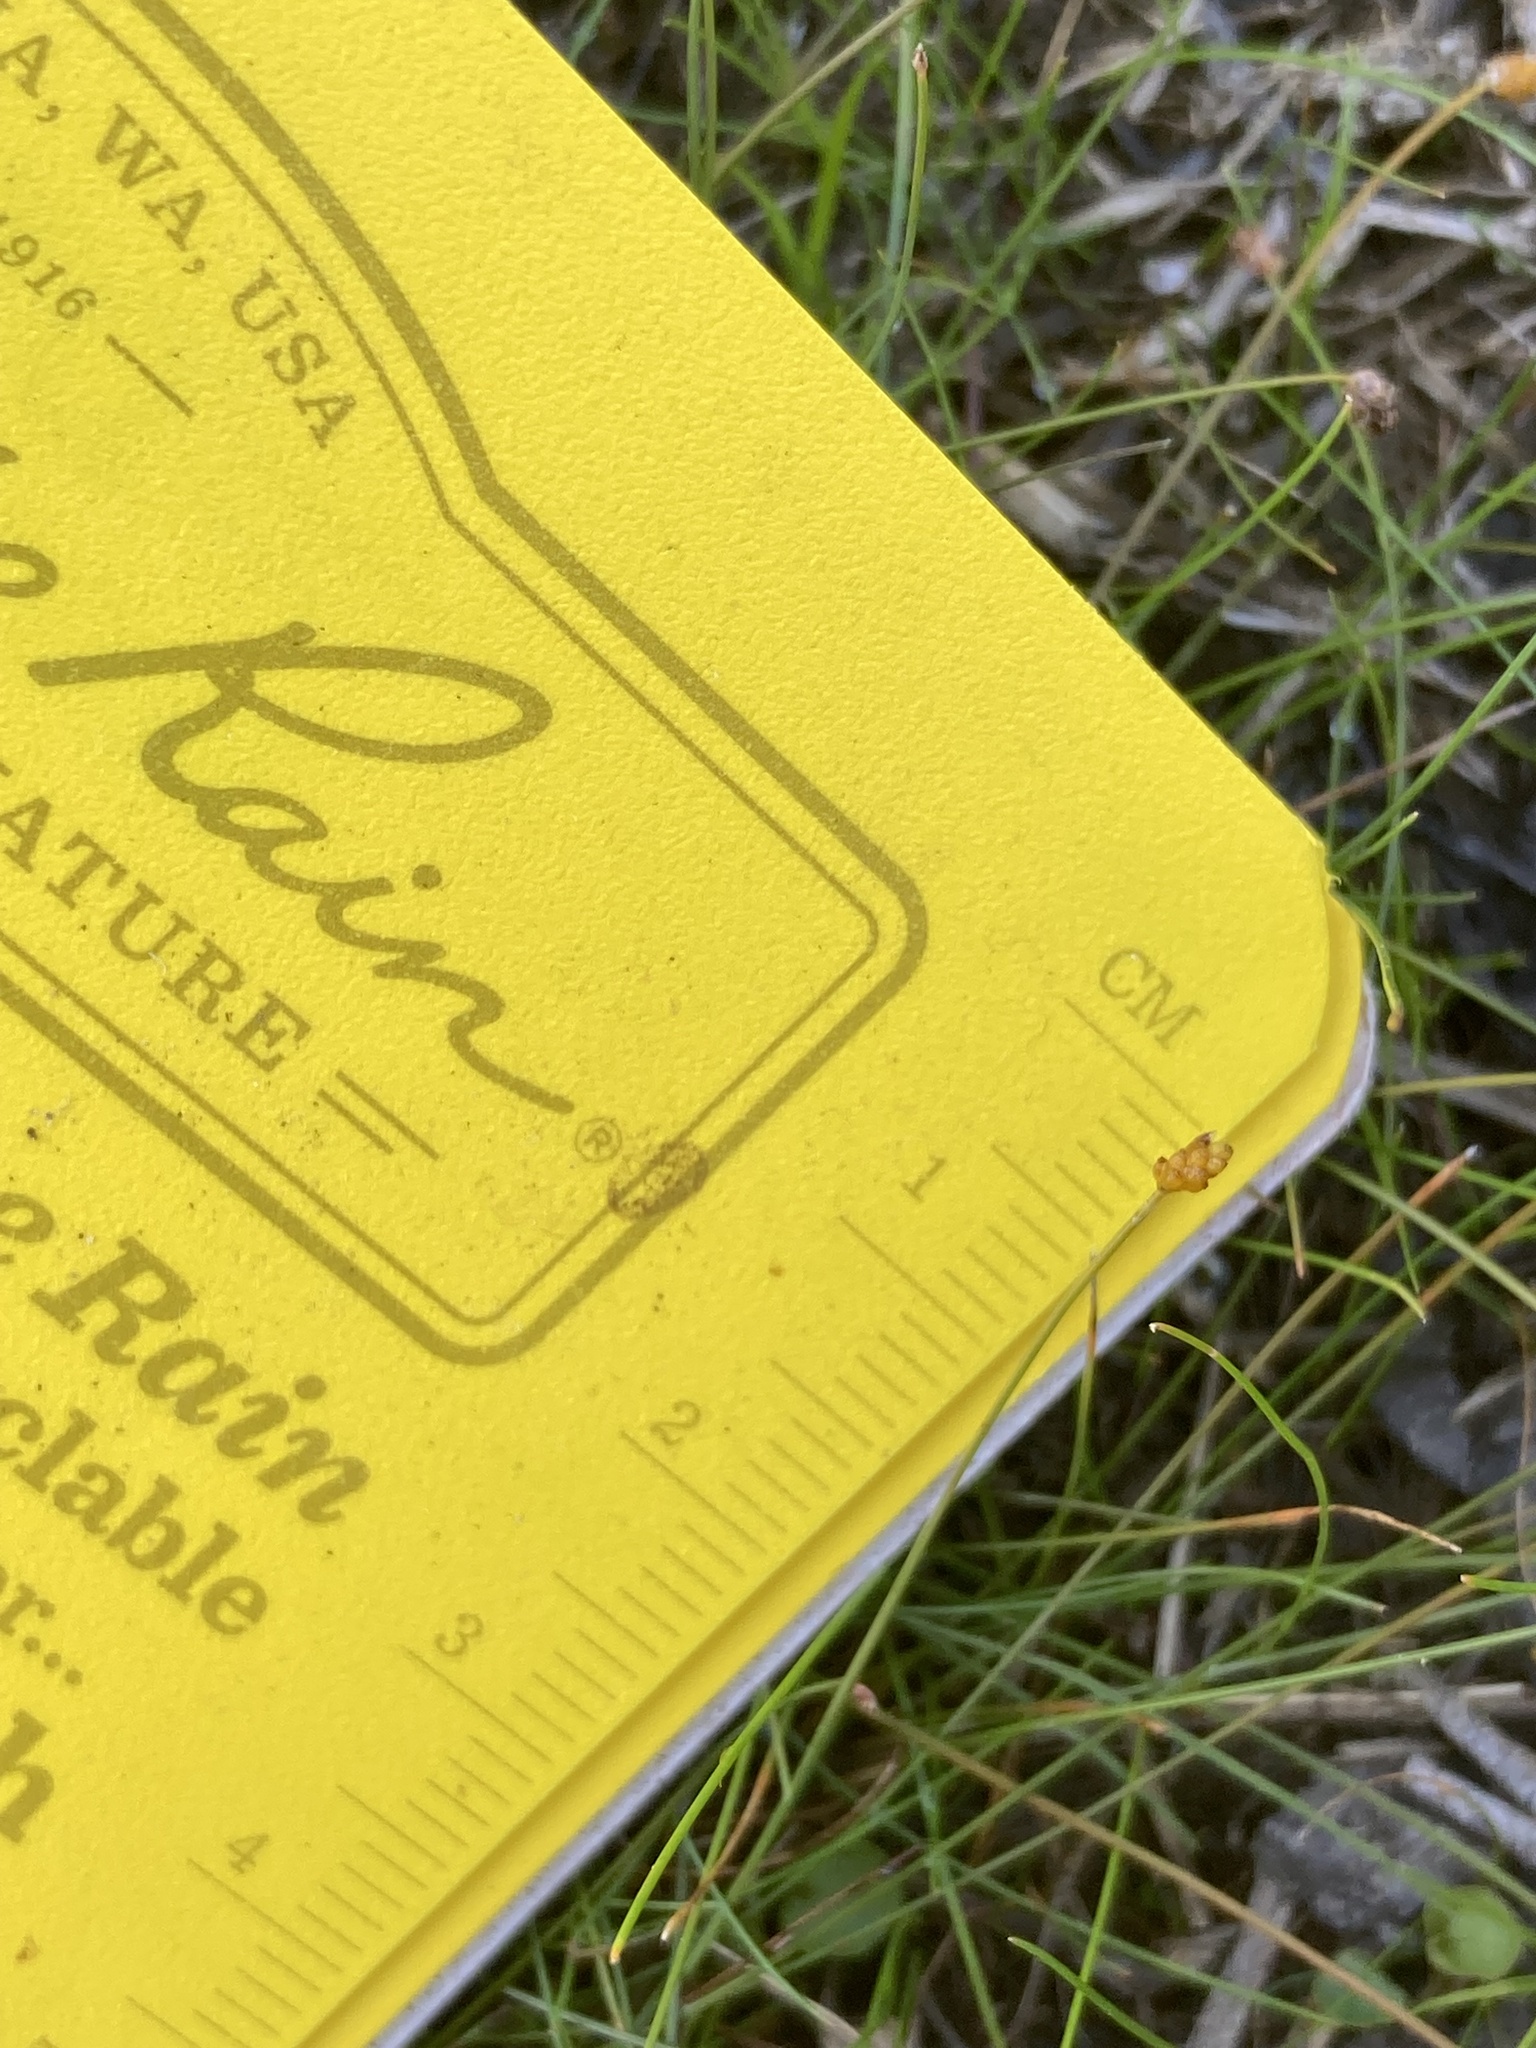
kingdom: Plantae
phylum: Tracheophyta
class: Liliopsida
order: Poales
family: Cyperaceae
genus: Eleocharis
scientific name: Eleocharis nitida
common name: Neat spikerush
